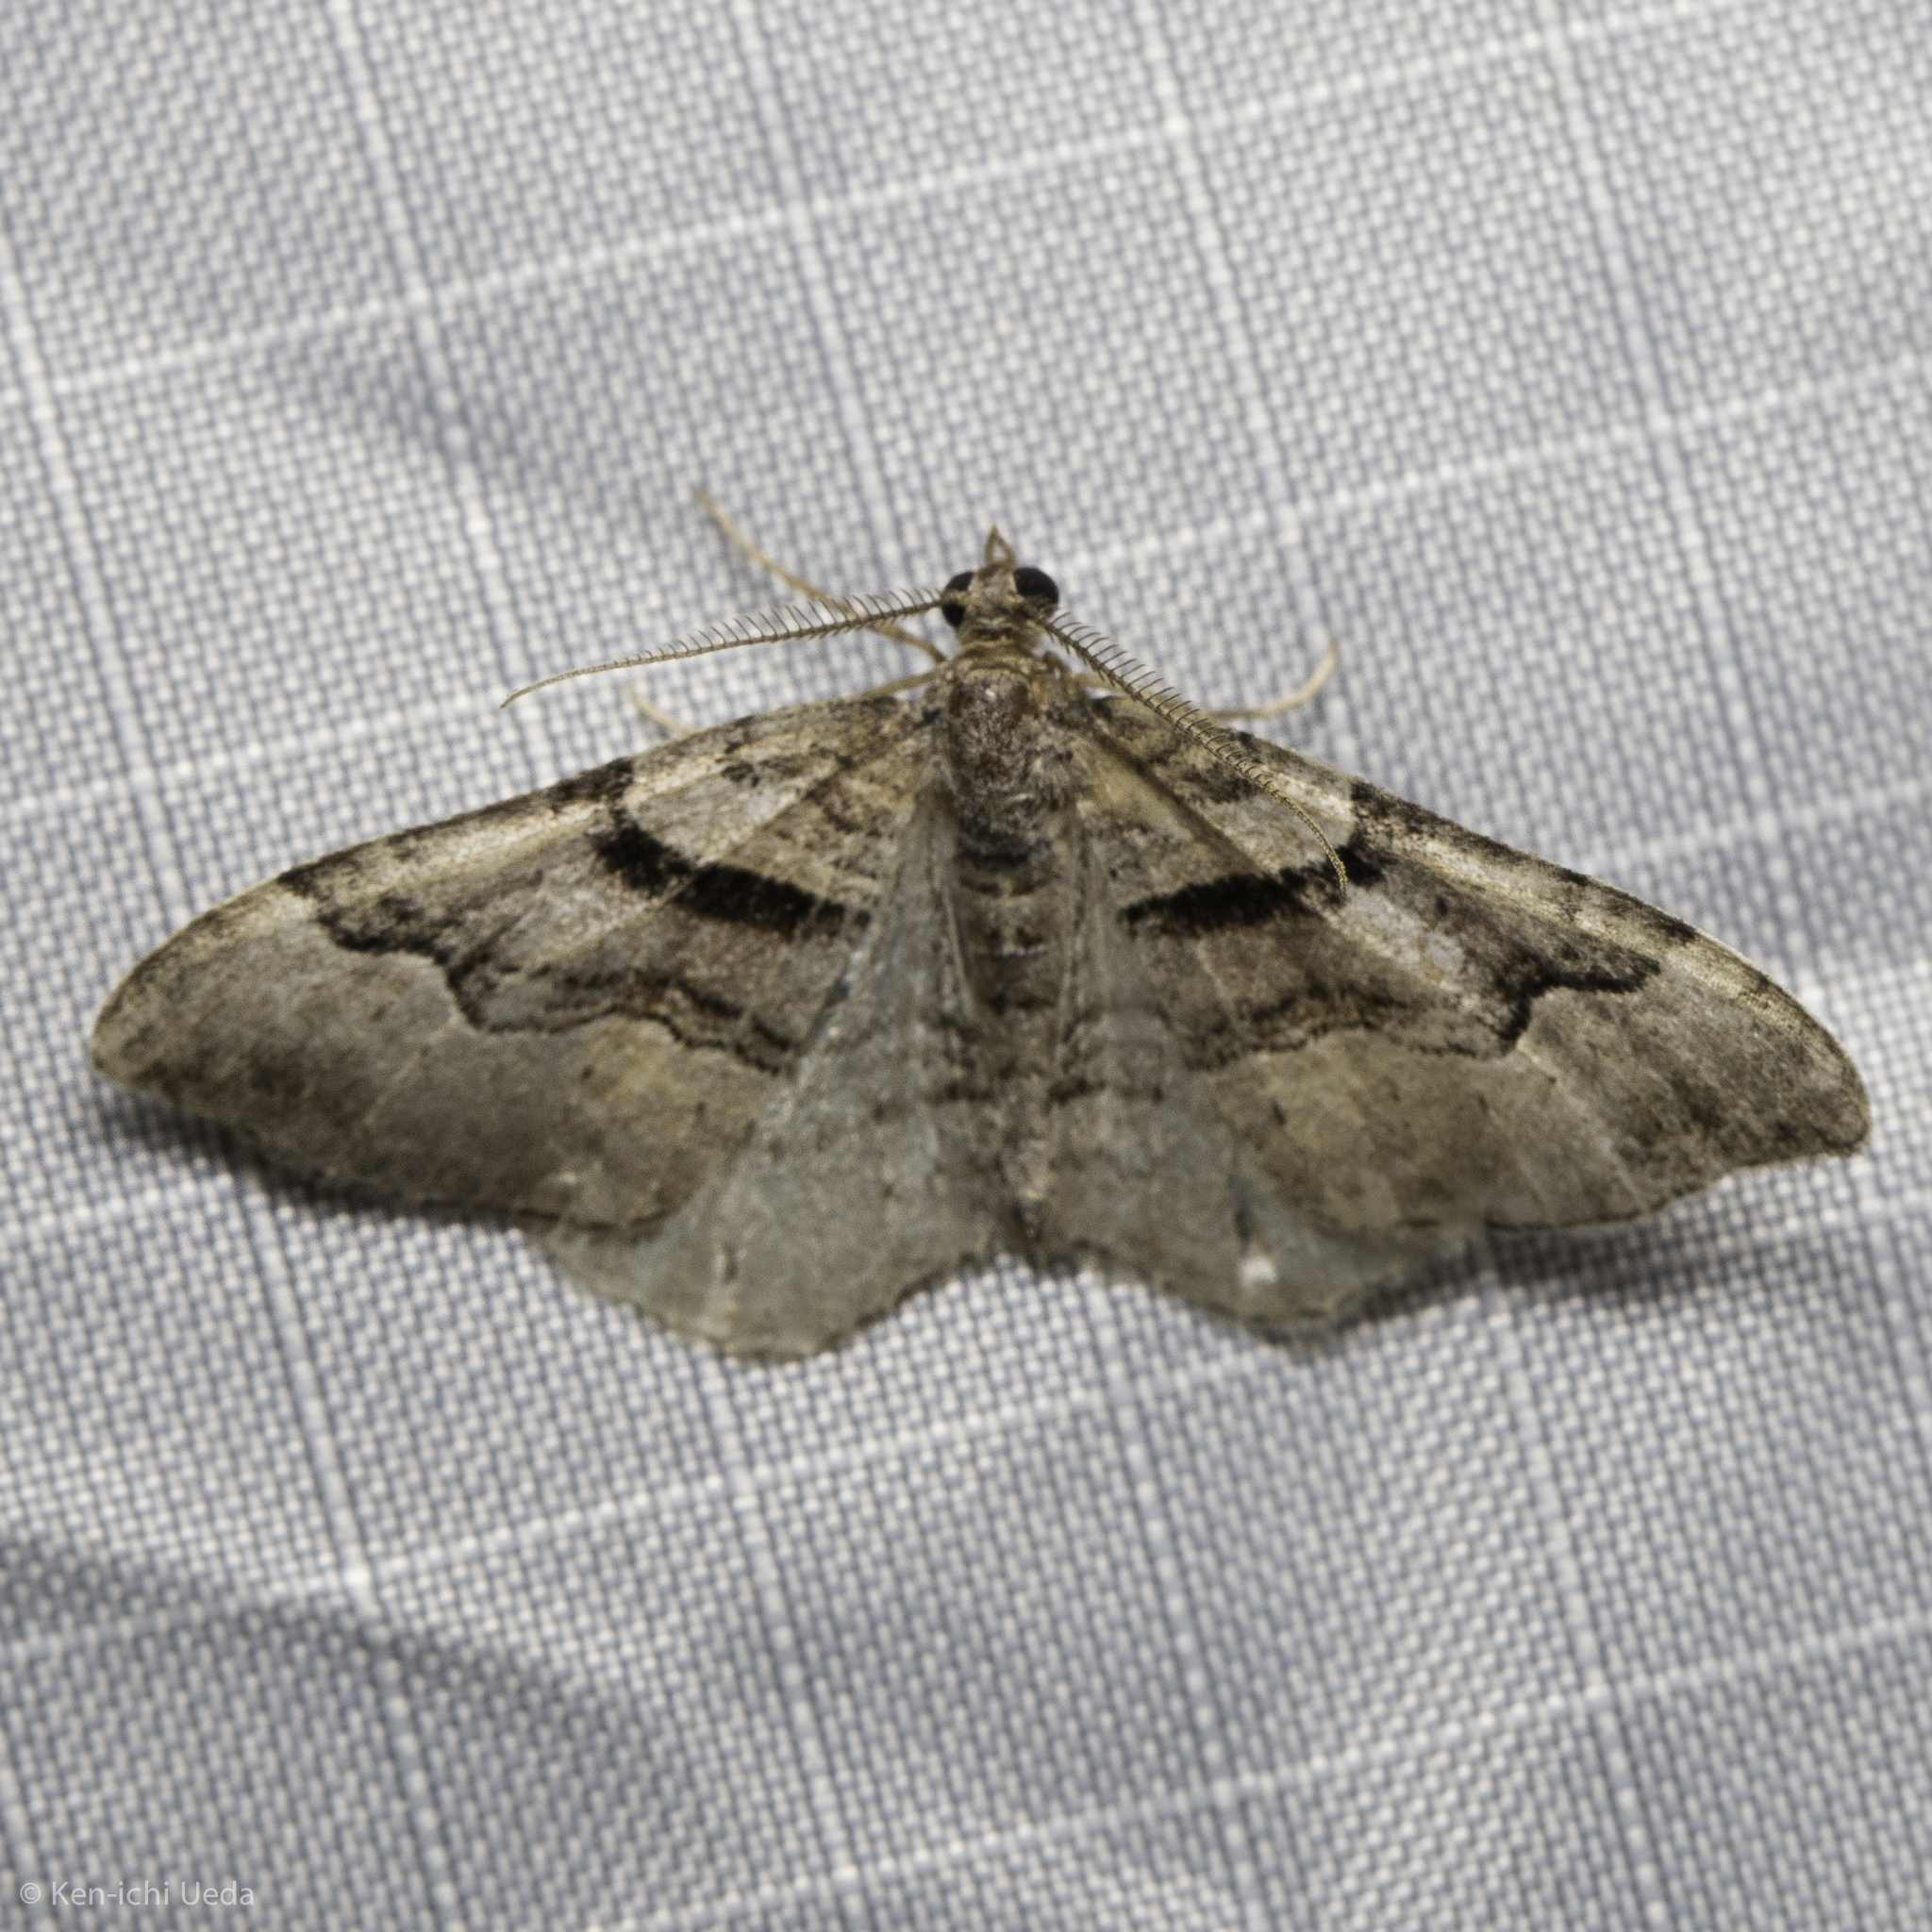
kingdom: Animalia
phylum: Arthropoda
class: Insecta
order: Lepidoptera
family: Geometridae
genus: Xanthorhoe
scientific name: Xanthorhoe defensaria
